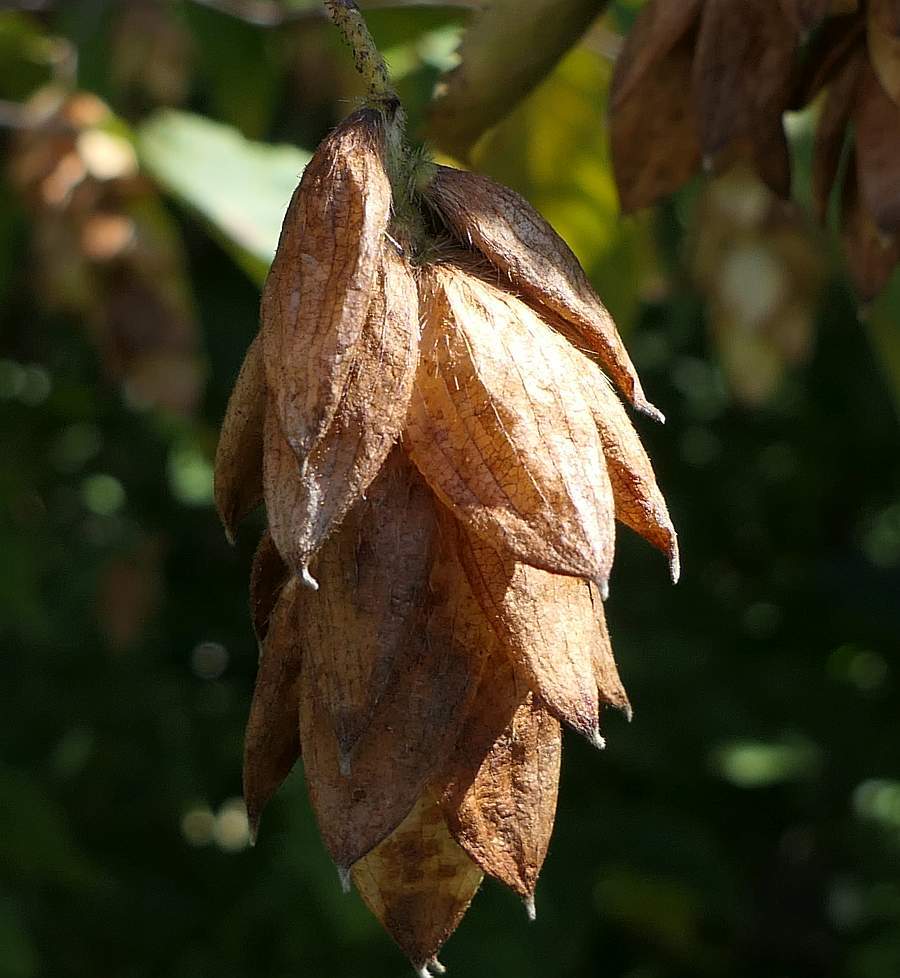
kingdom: Plantae
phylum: Tracheophyta
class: Magnoliopsida
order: Fagales
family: Betulaceae
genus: Ostrya
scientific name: Ostrya virginiana
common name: Ironwood
